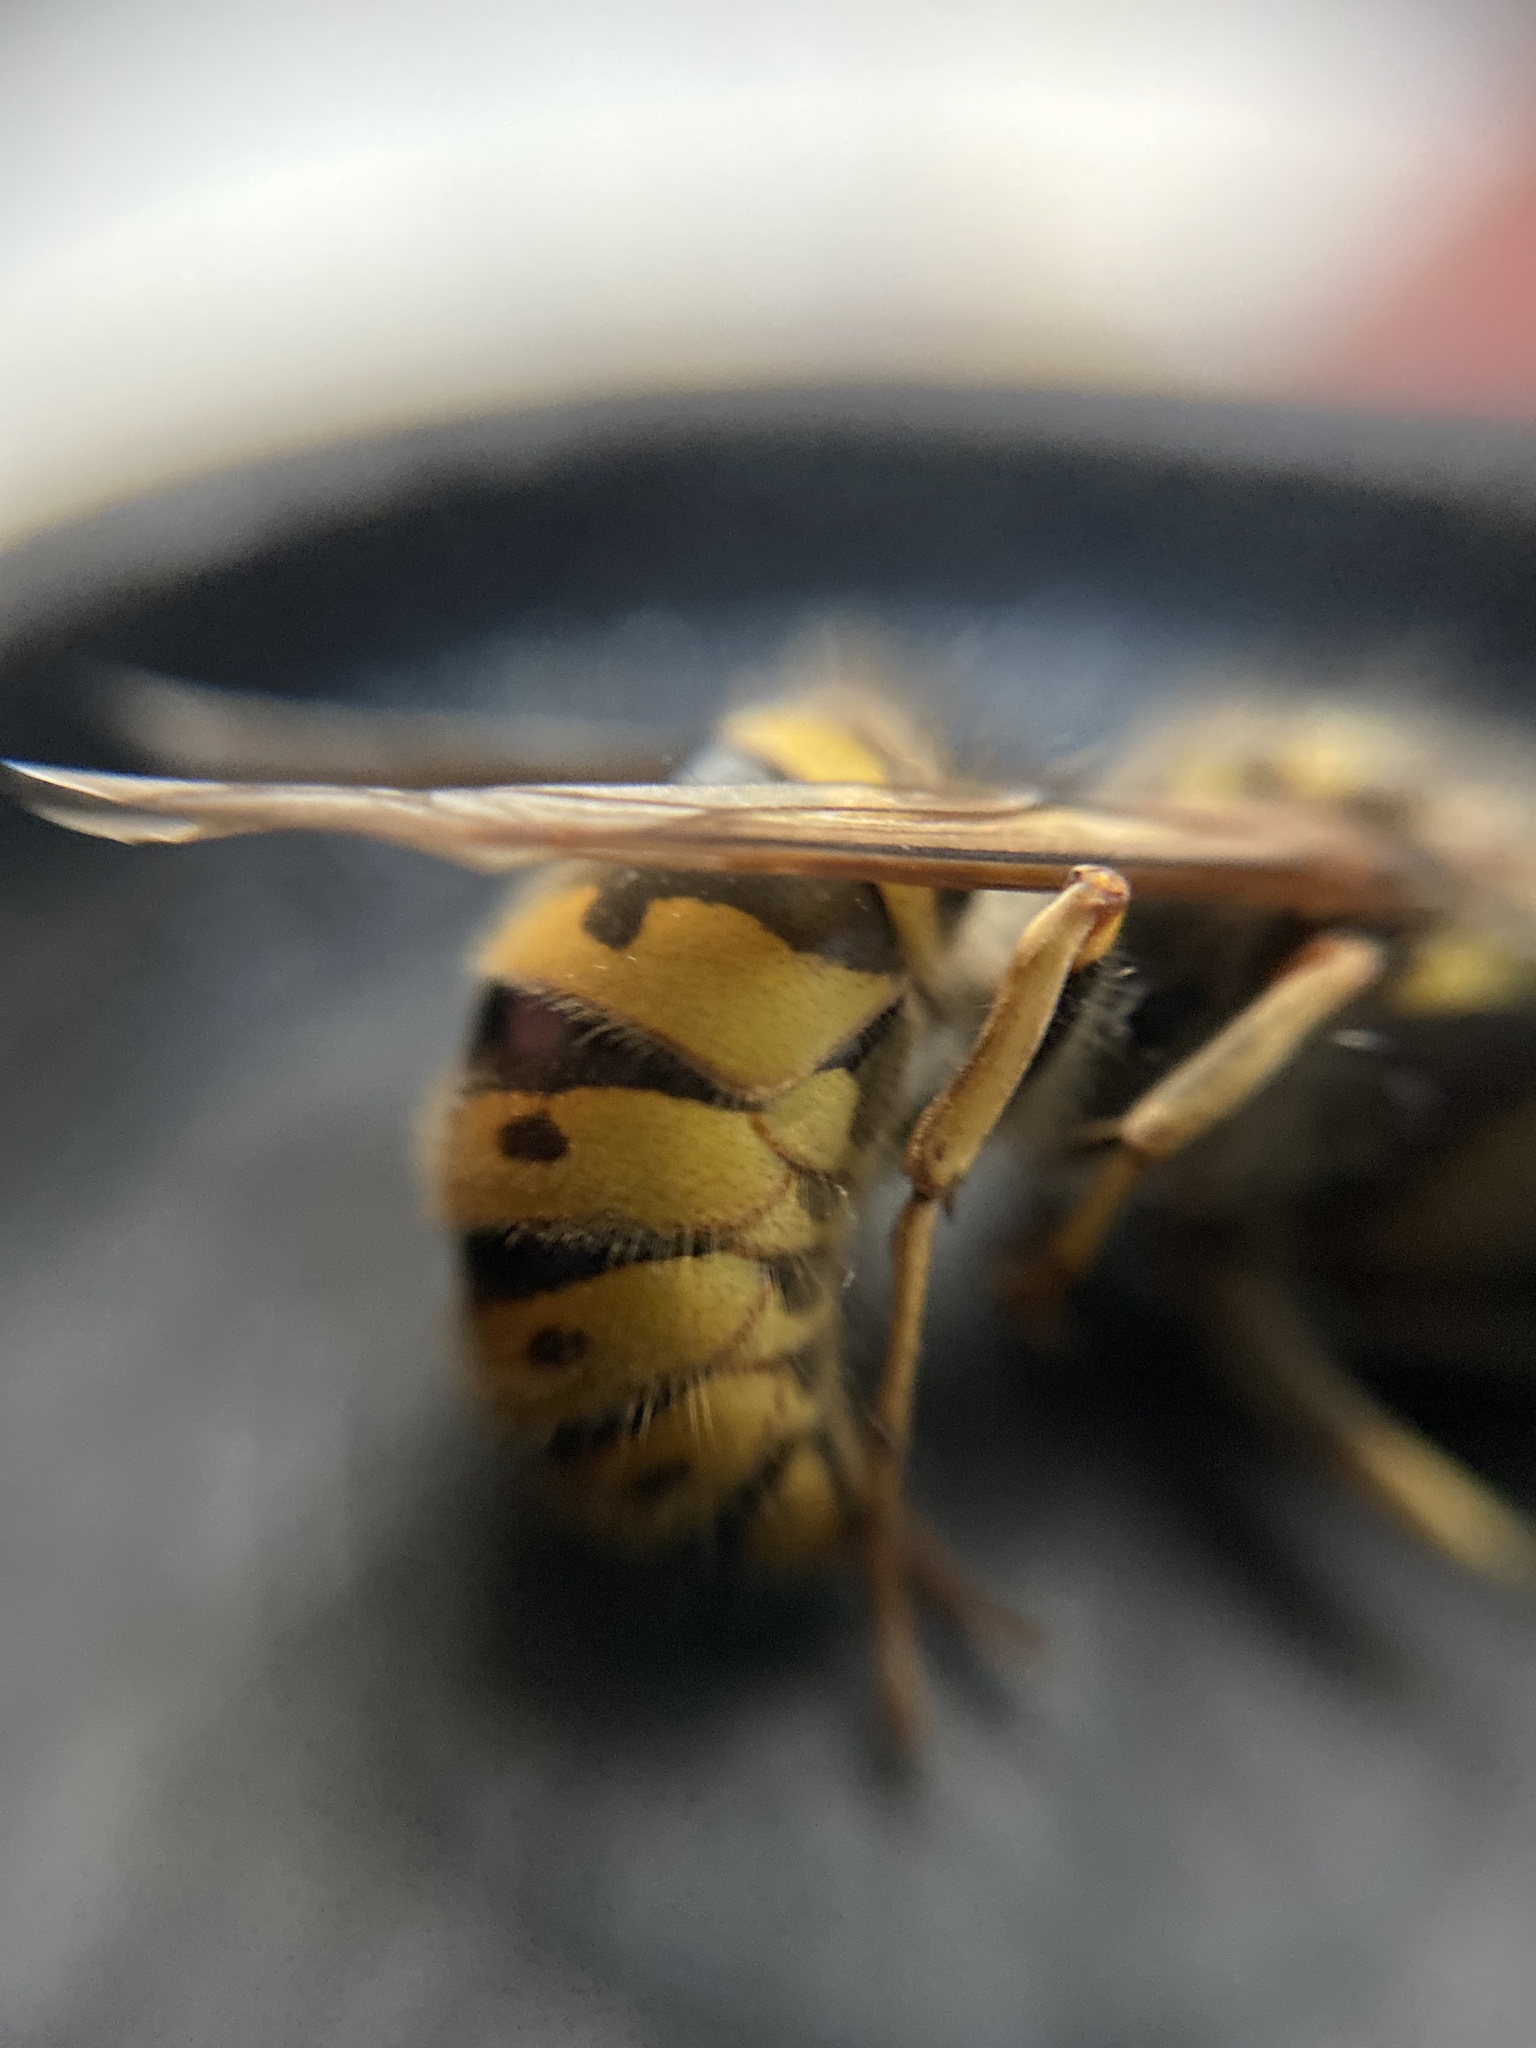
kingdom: Animalia
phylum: Arthropoda
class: Insecta
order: Hymenoptera
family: Vespidae
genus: Vespula
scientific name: Vespula vulgaris
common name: Common wasp
